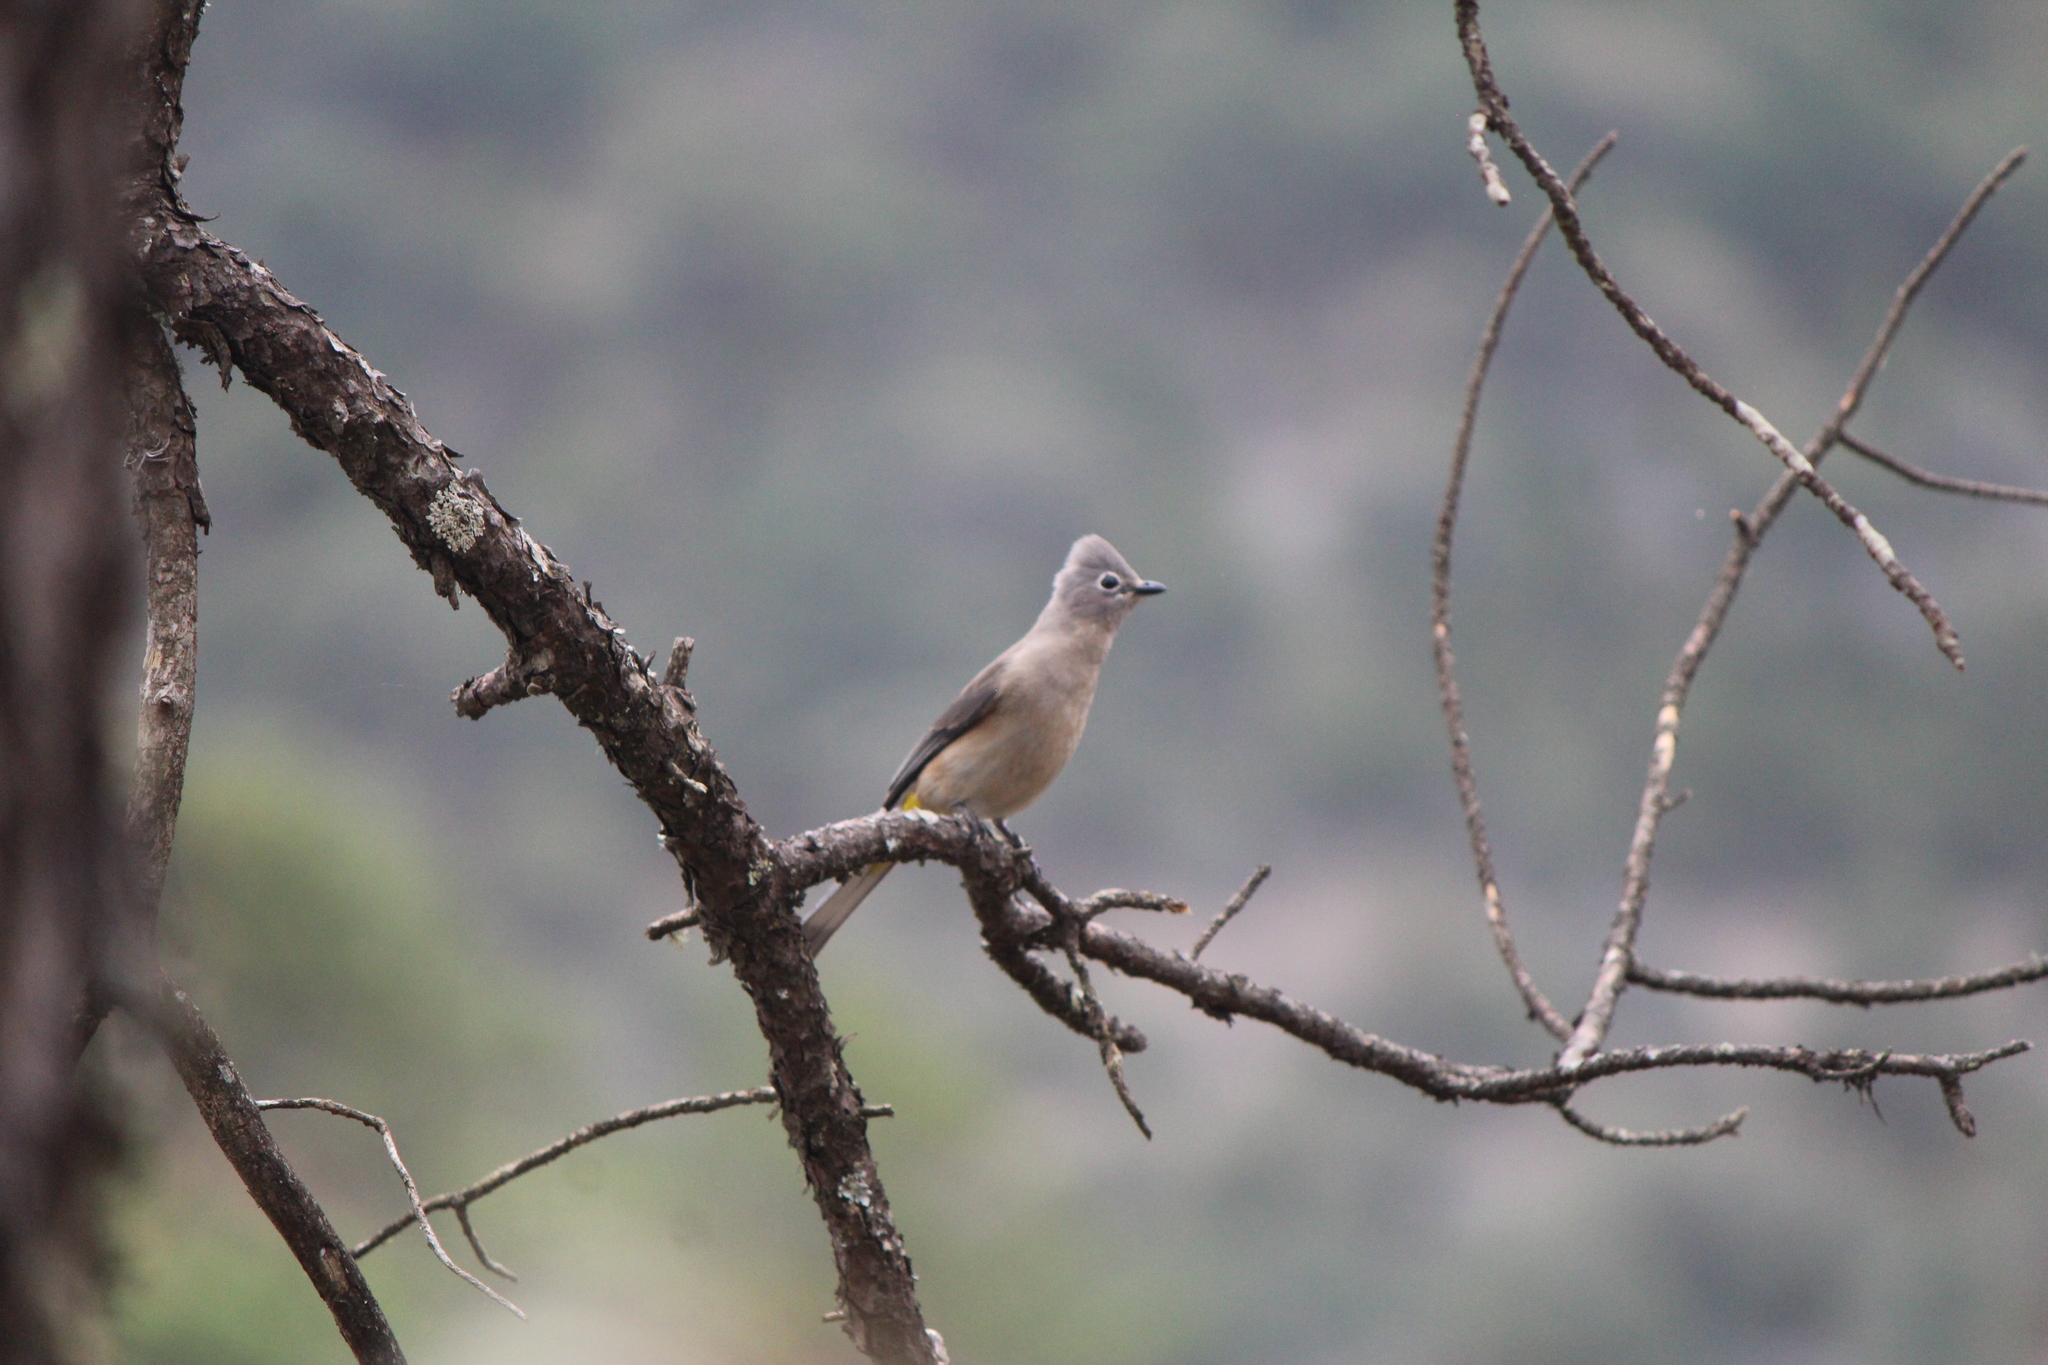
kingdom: Animalia
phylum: Chordata
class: Aves
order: Passeriformes
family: Ptilogonatidae
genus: Ptilogonys
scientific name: Ptilogonys cinereus
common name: Gray silky-flycatcher
